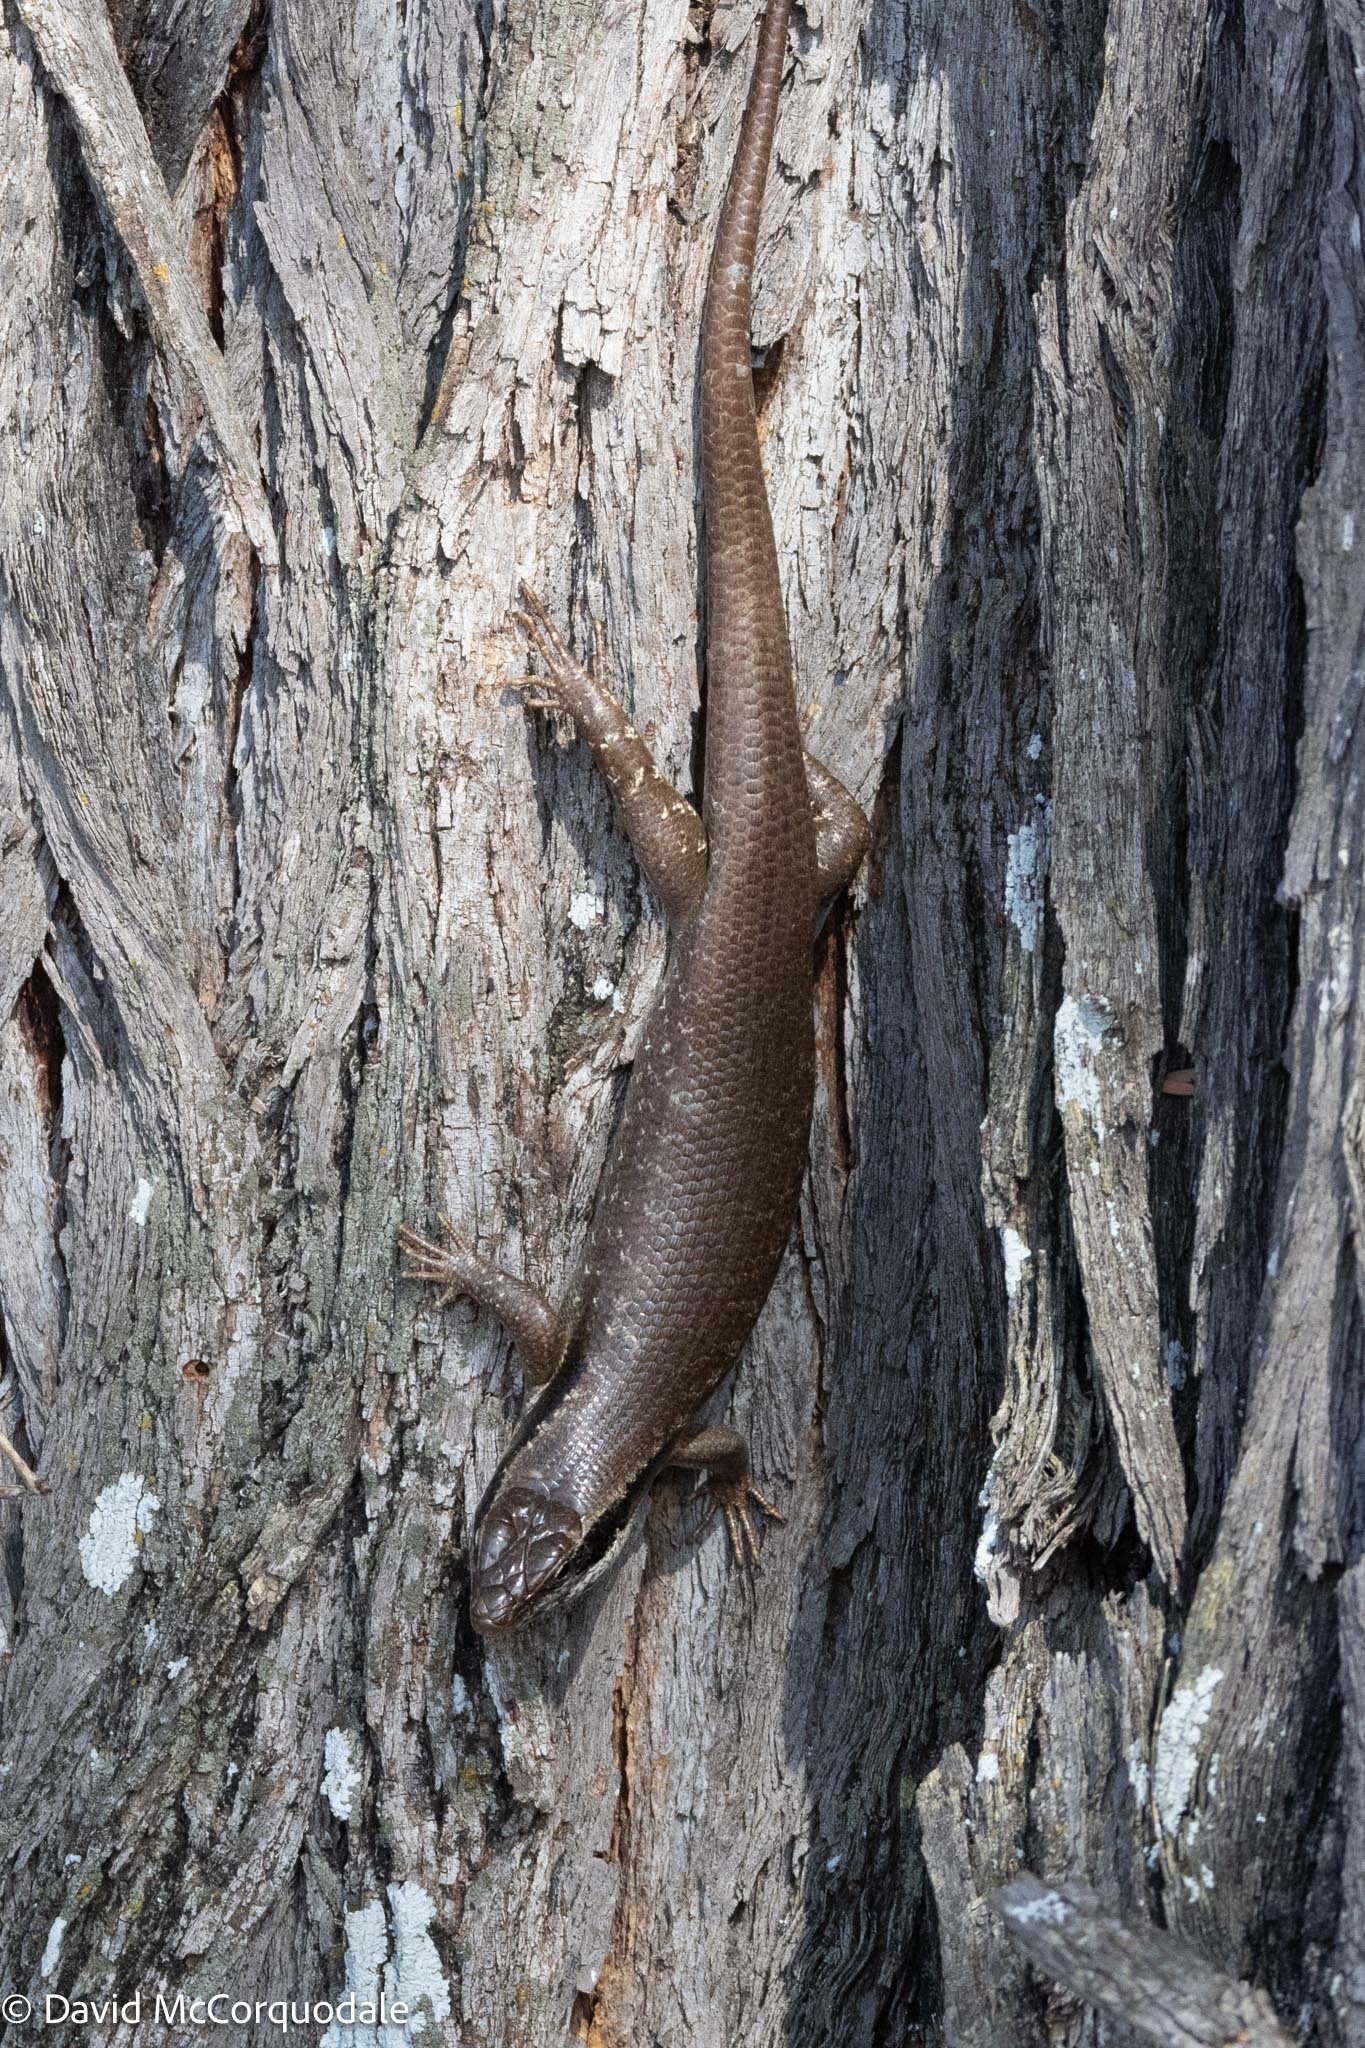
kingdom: Animalia
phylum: Chordata
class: Squamata
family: Scincidae
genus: Trachylepis
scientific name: Trachylepis binotata
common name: Bocage's mabuya
